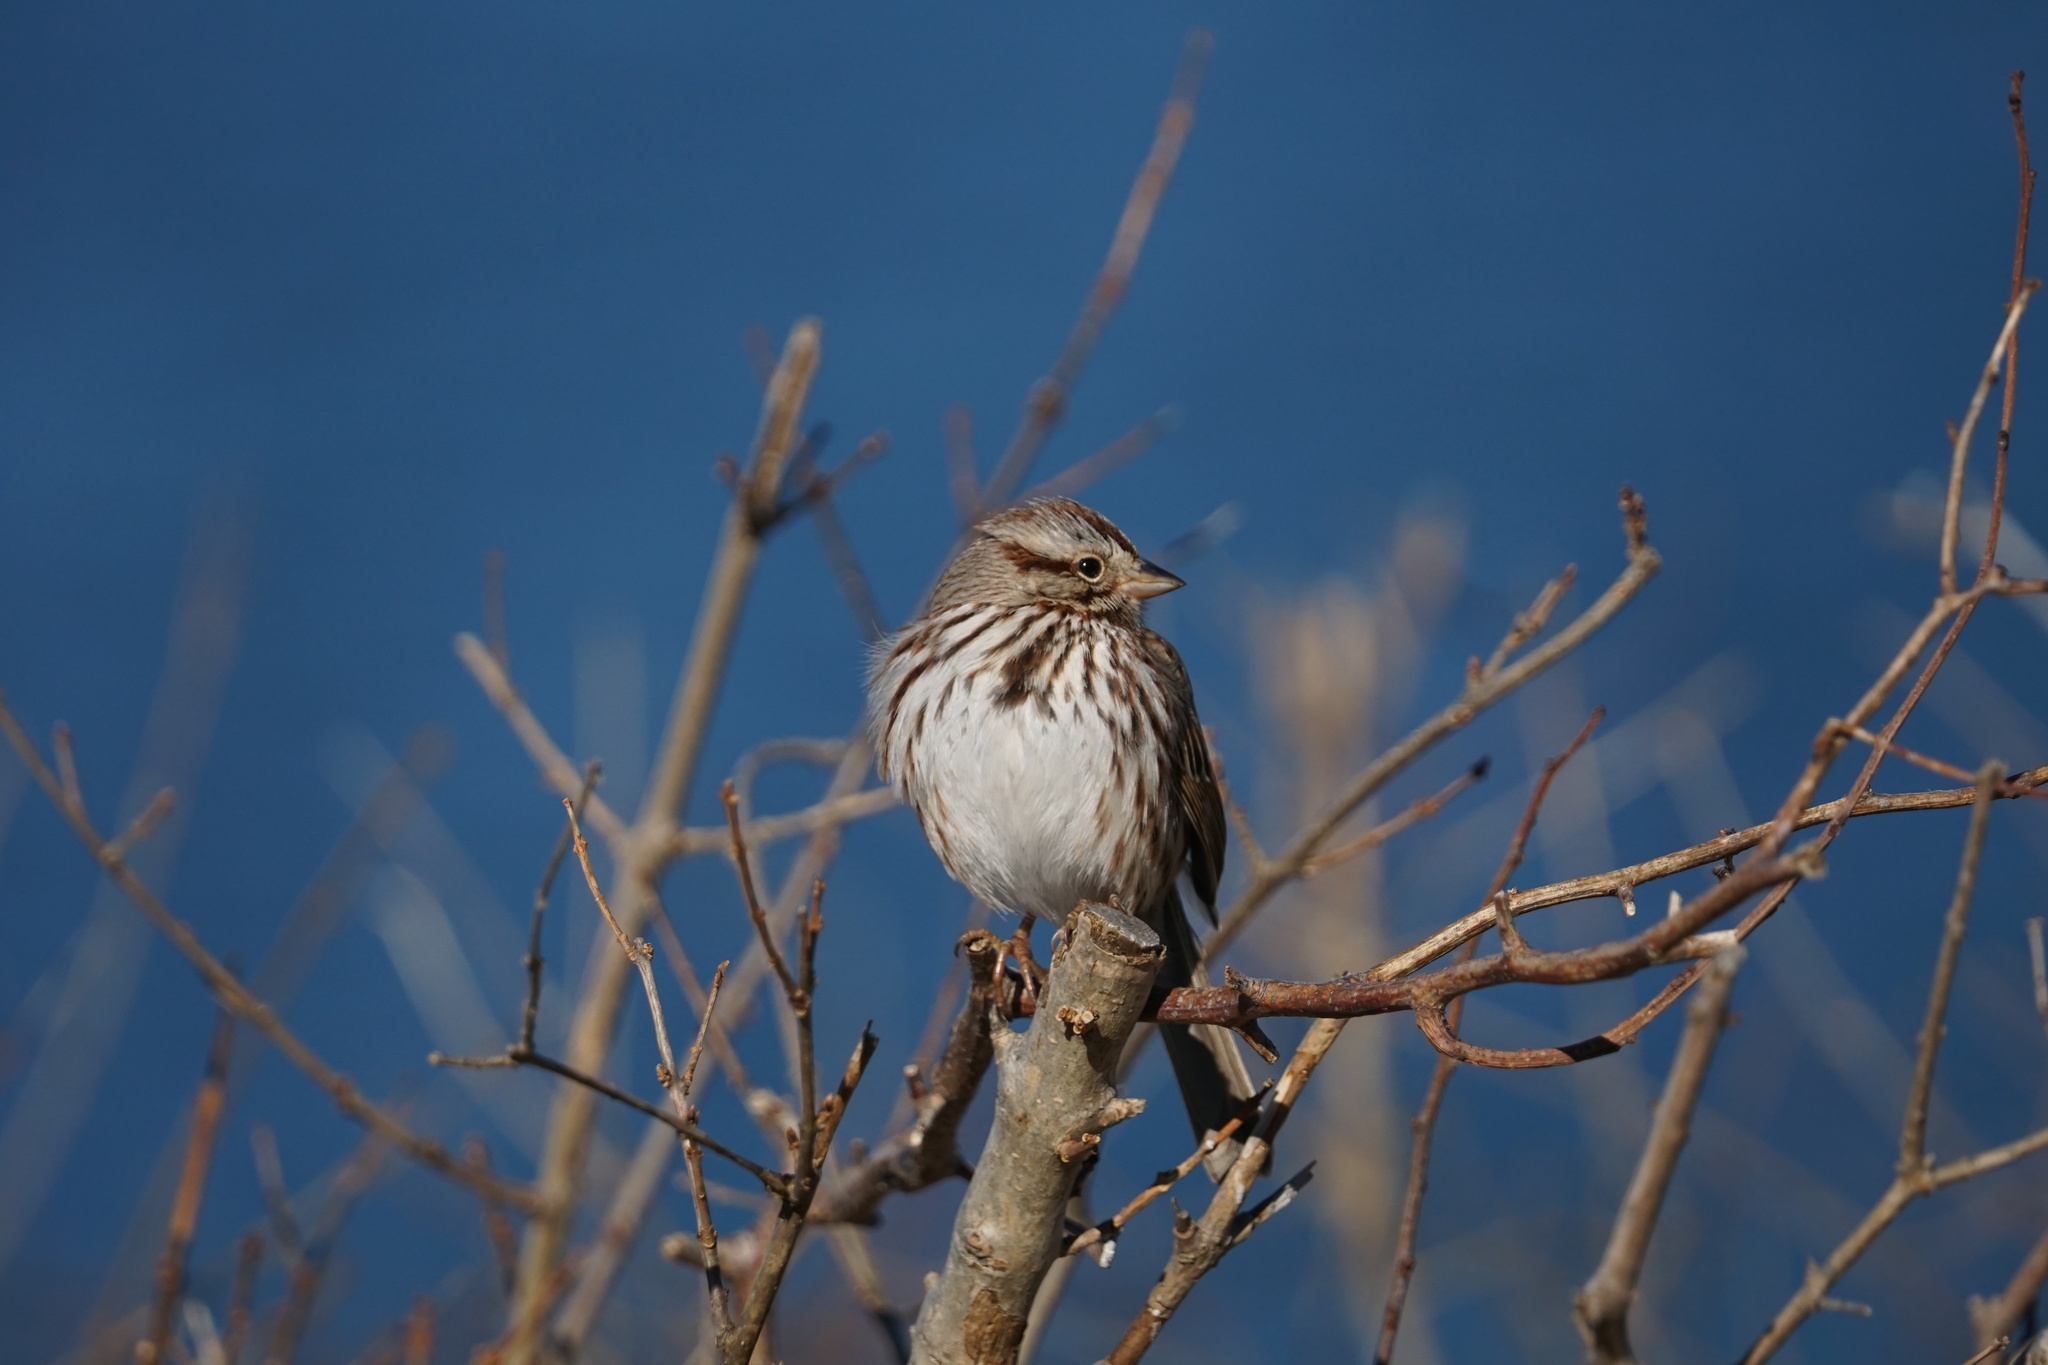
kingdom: Animalia
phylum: Chordata
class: Aves
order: Passeriformes
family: Passerellidae
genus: Melospiza
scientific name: Melospiza melodia
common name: Song sparrow
